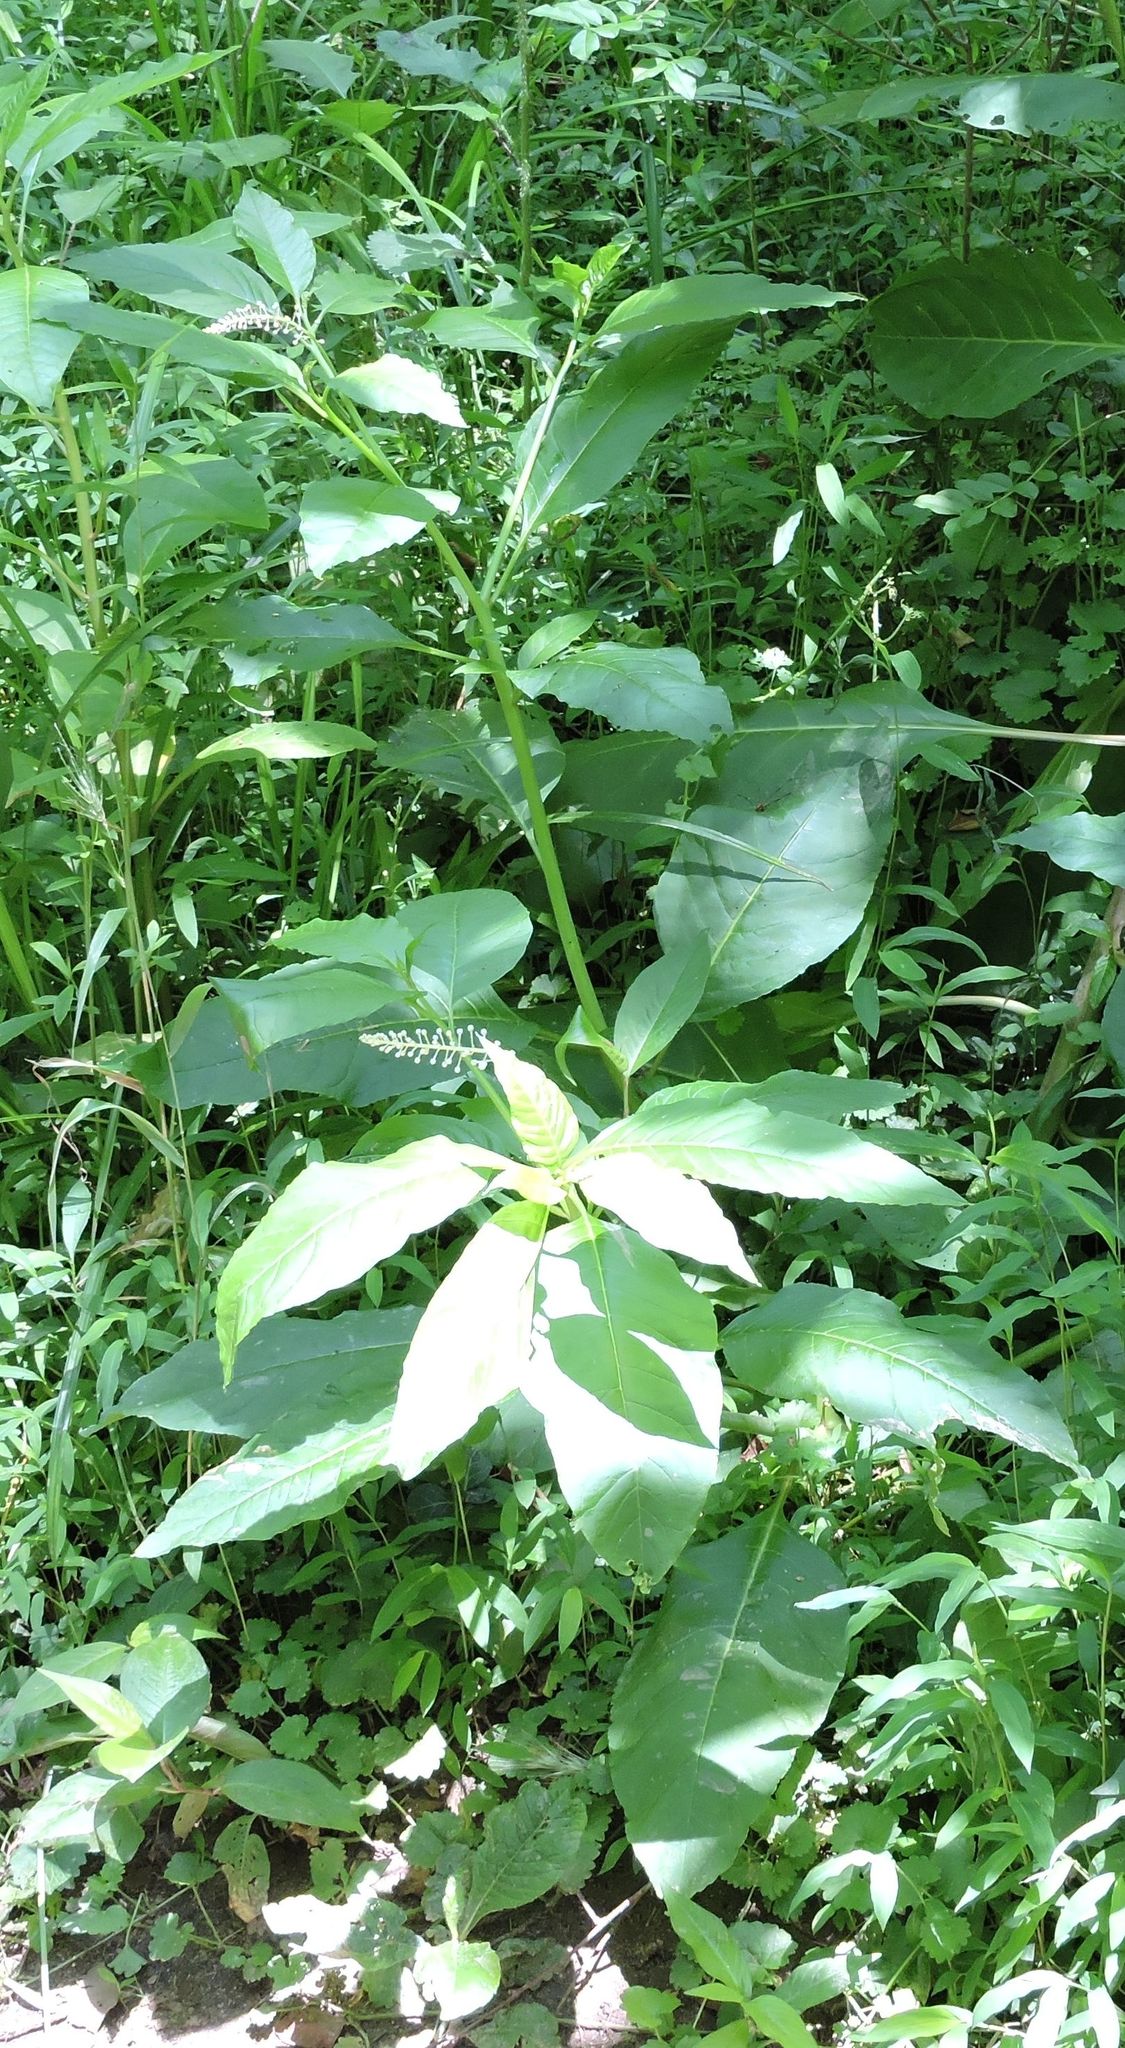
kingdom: Plantae
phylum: Tracheophyta
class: Magnoliopsida
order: Caryophyllales
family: Phytolaccaceae
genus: Phytolacca
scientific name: Phytolacca americana
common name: American pokeweed
